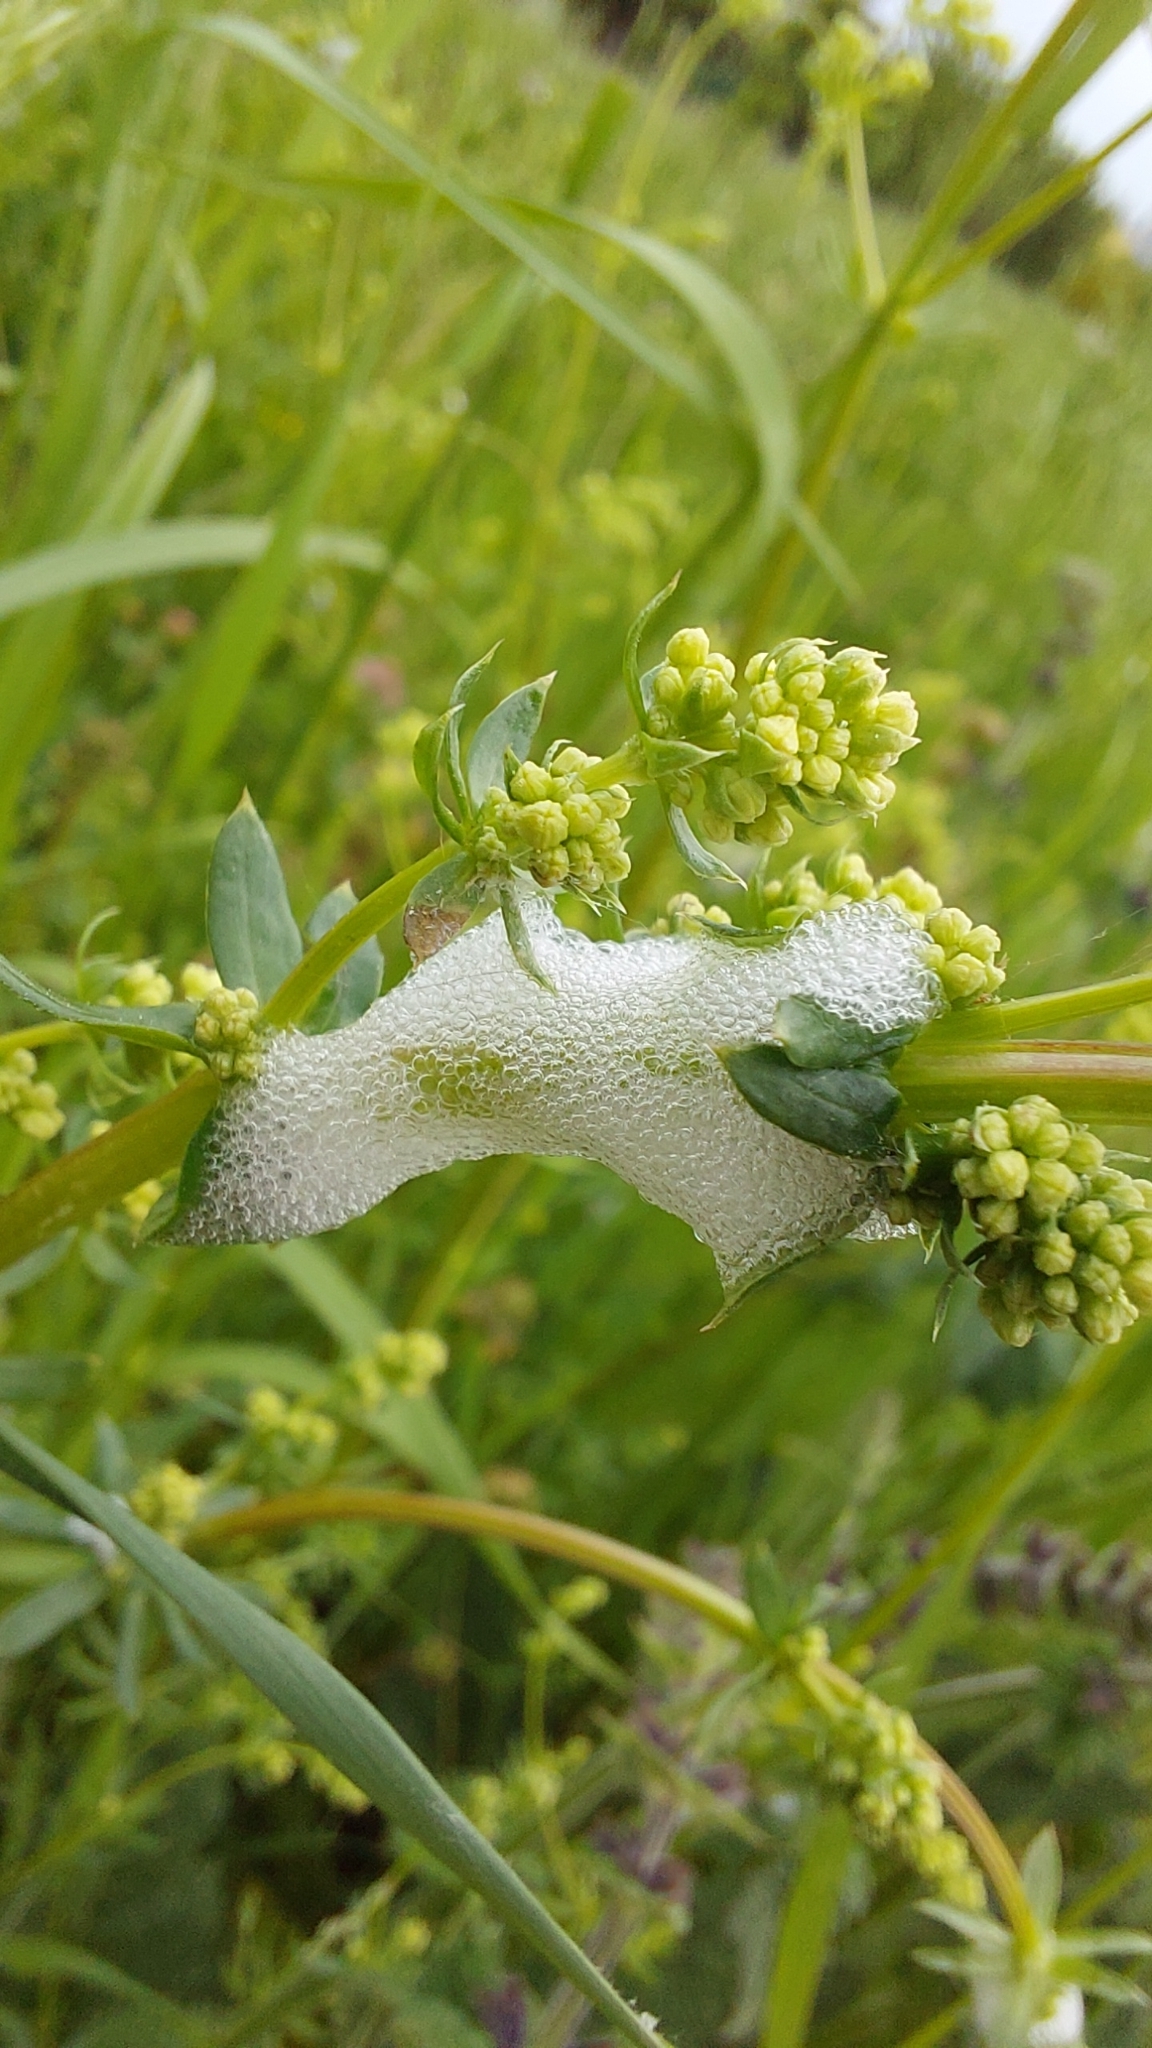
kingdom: Animalia
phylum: Arthropoda
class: Insecta
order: Hemiptera
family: Aphrophoridae
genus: Philaenus
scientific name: Philaenus spumarius
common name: Meadow spittlebug
